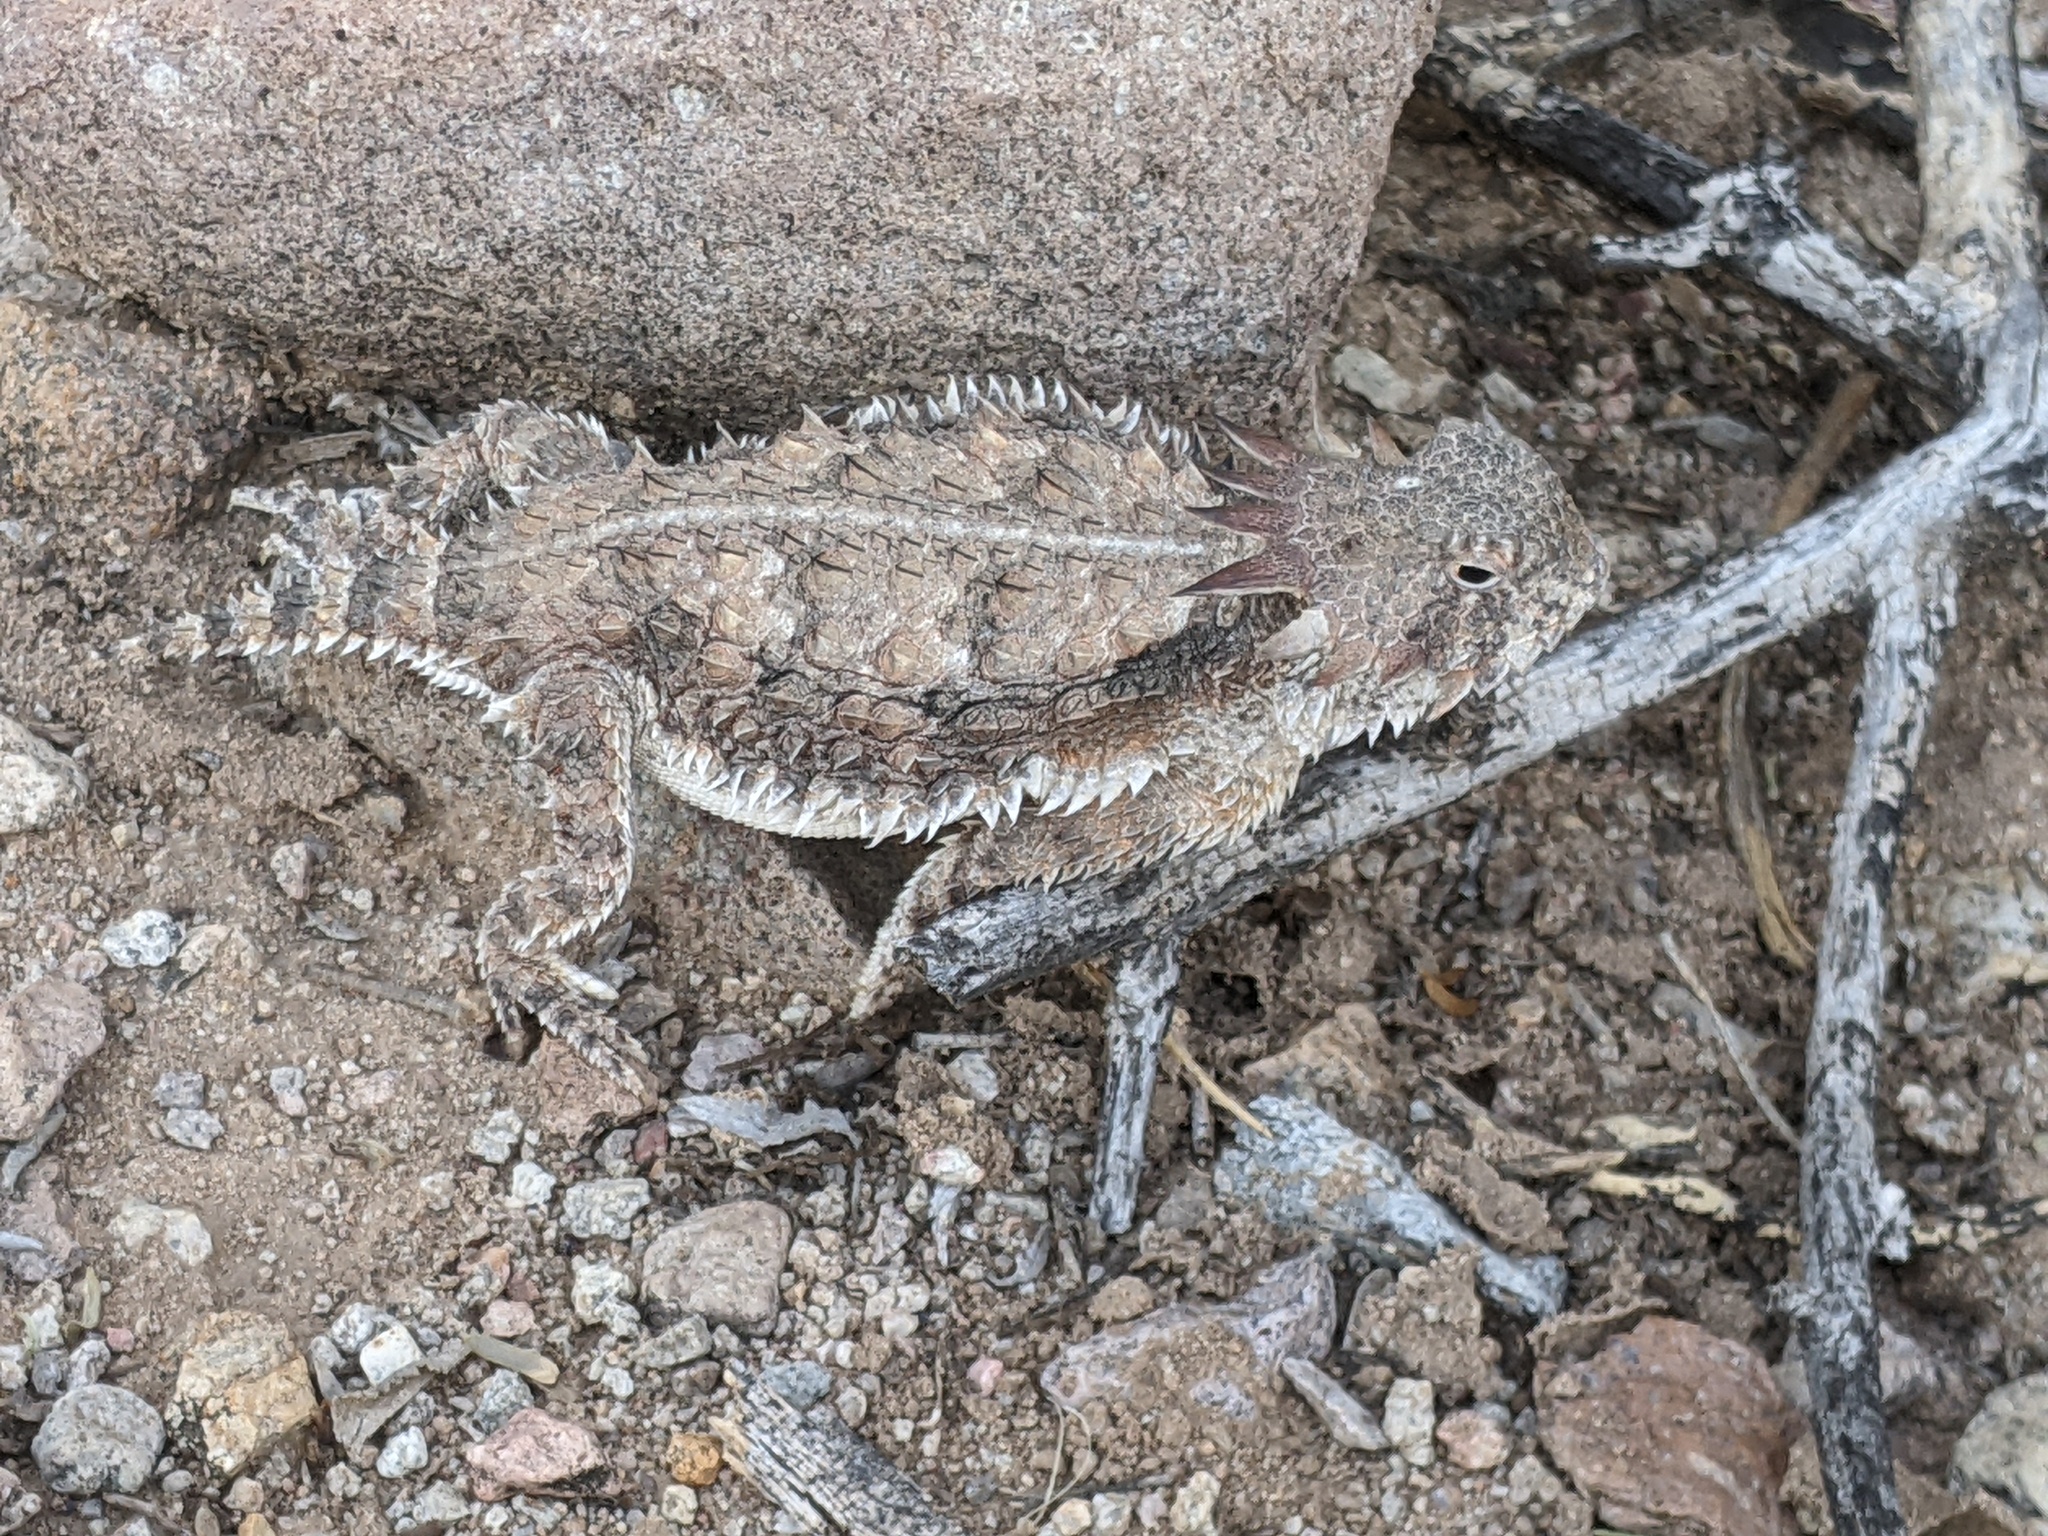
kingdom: Animalia
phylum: Chordata
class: Squamata
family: Phrynosomatidae
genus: Phrynosoma
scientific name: Phrynosoma solare
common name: Regal horned lizard
